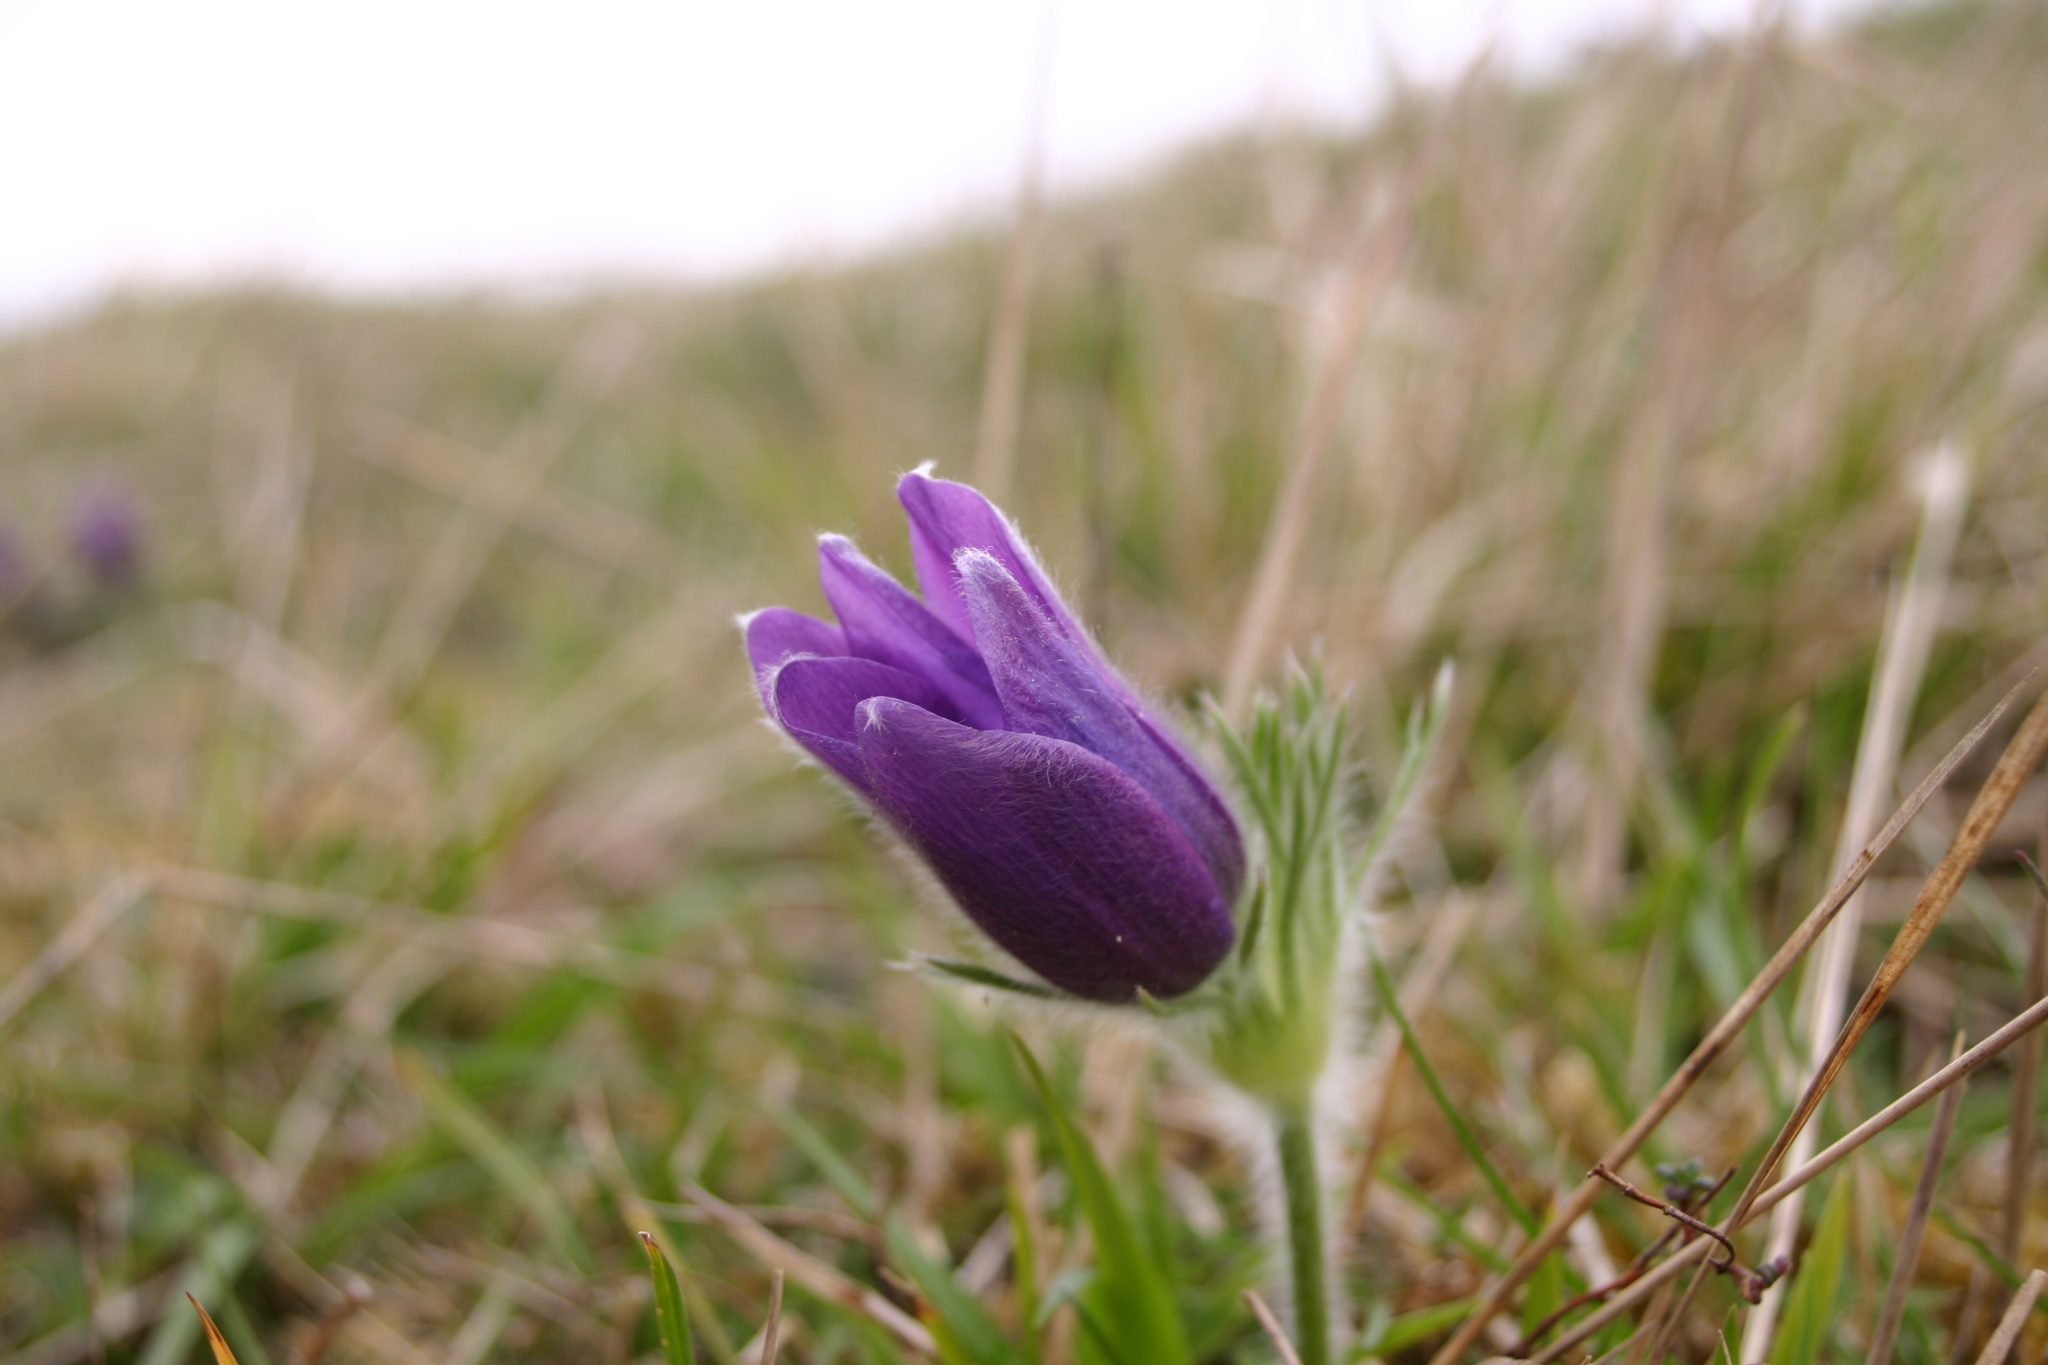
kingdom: Plantae
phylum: Tracheophyta
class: Magnoliopsida
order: Ranunculales
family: Ranunculaceae
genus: Pulsatilla
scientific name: Pulsatilla vulgaris
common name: Pasqueflower
